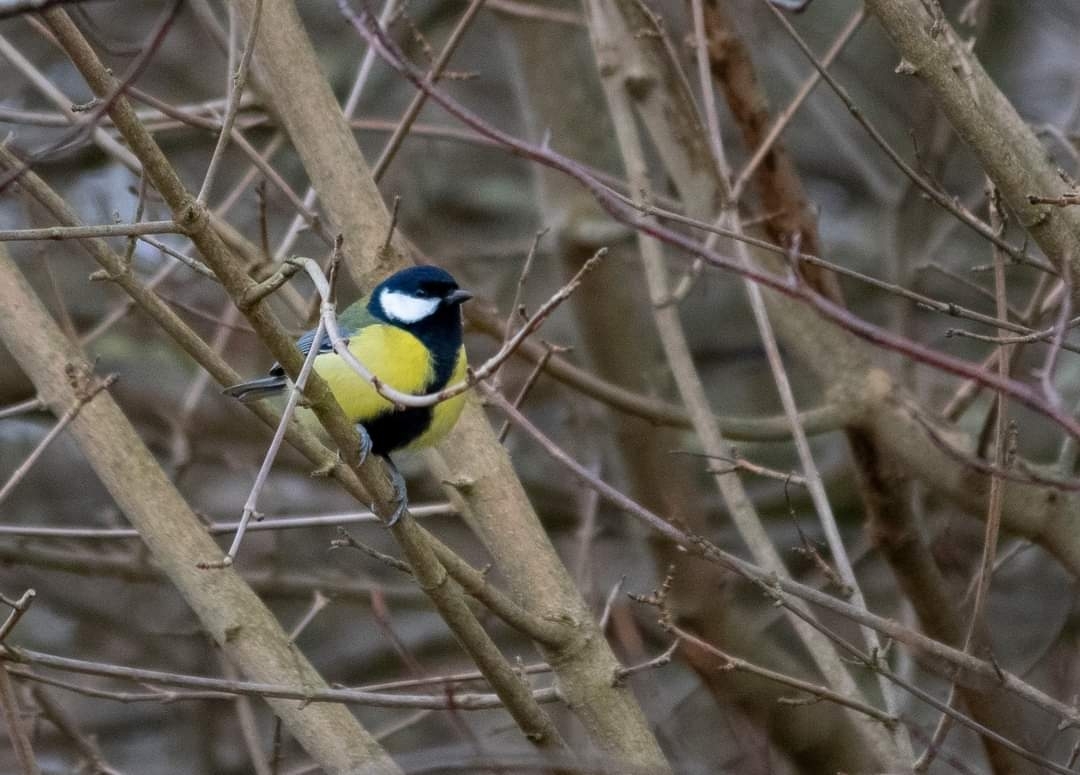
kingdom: Animalia
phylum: Chordata
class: Aves
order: Passeriformes
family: Paridae
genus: Parus
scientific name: Parus major
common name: Great tit
